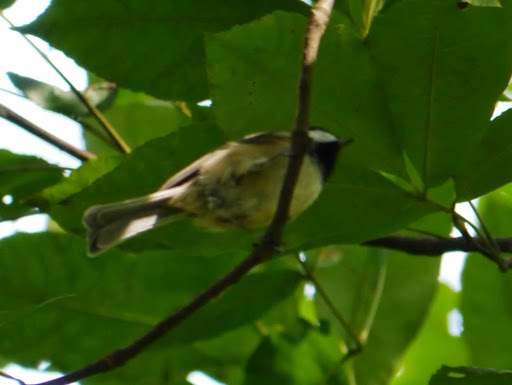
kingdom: Animalia
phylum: Chordata
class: Aves
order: Passeriformes
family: Paridae
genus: Poecile
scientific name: Poecile carolinensis
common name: Carolina chickadee
